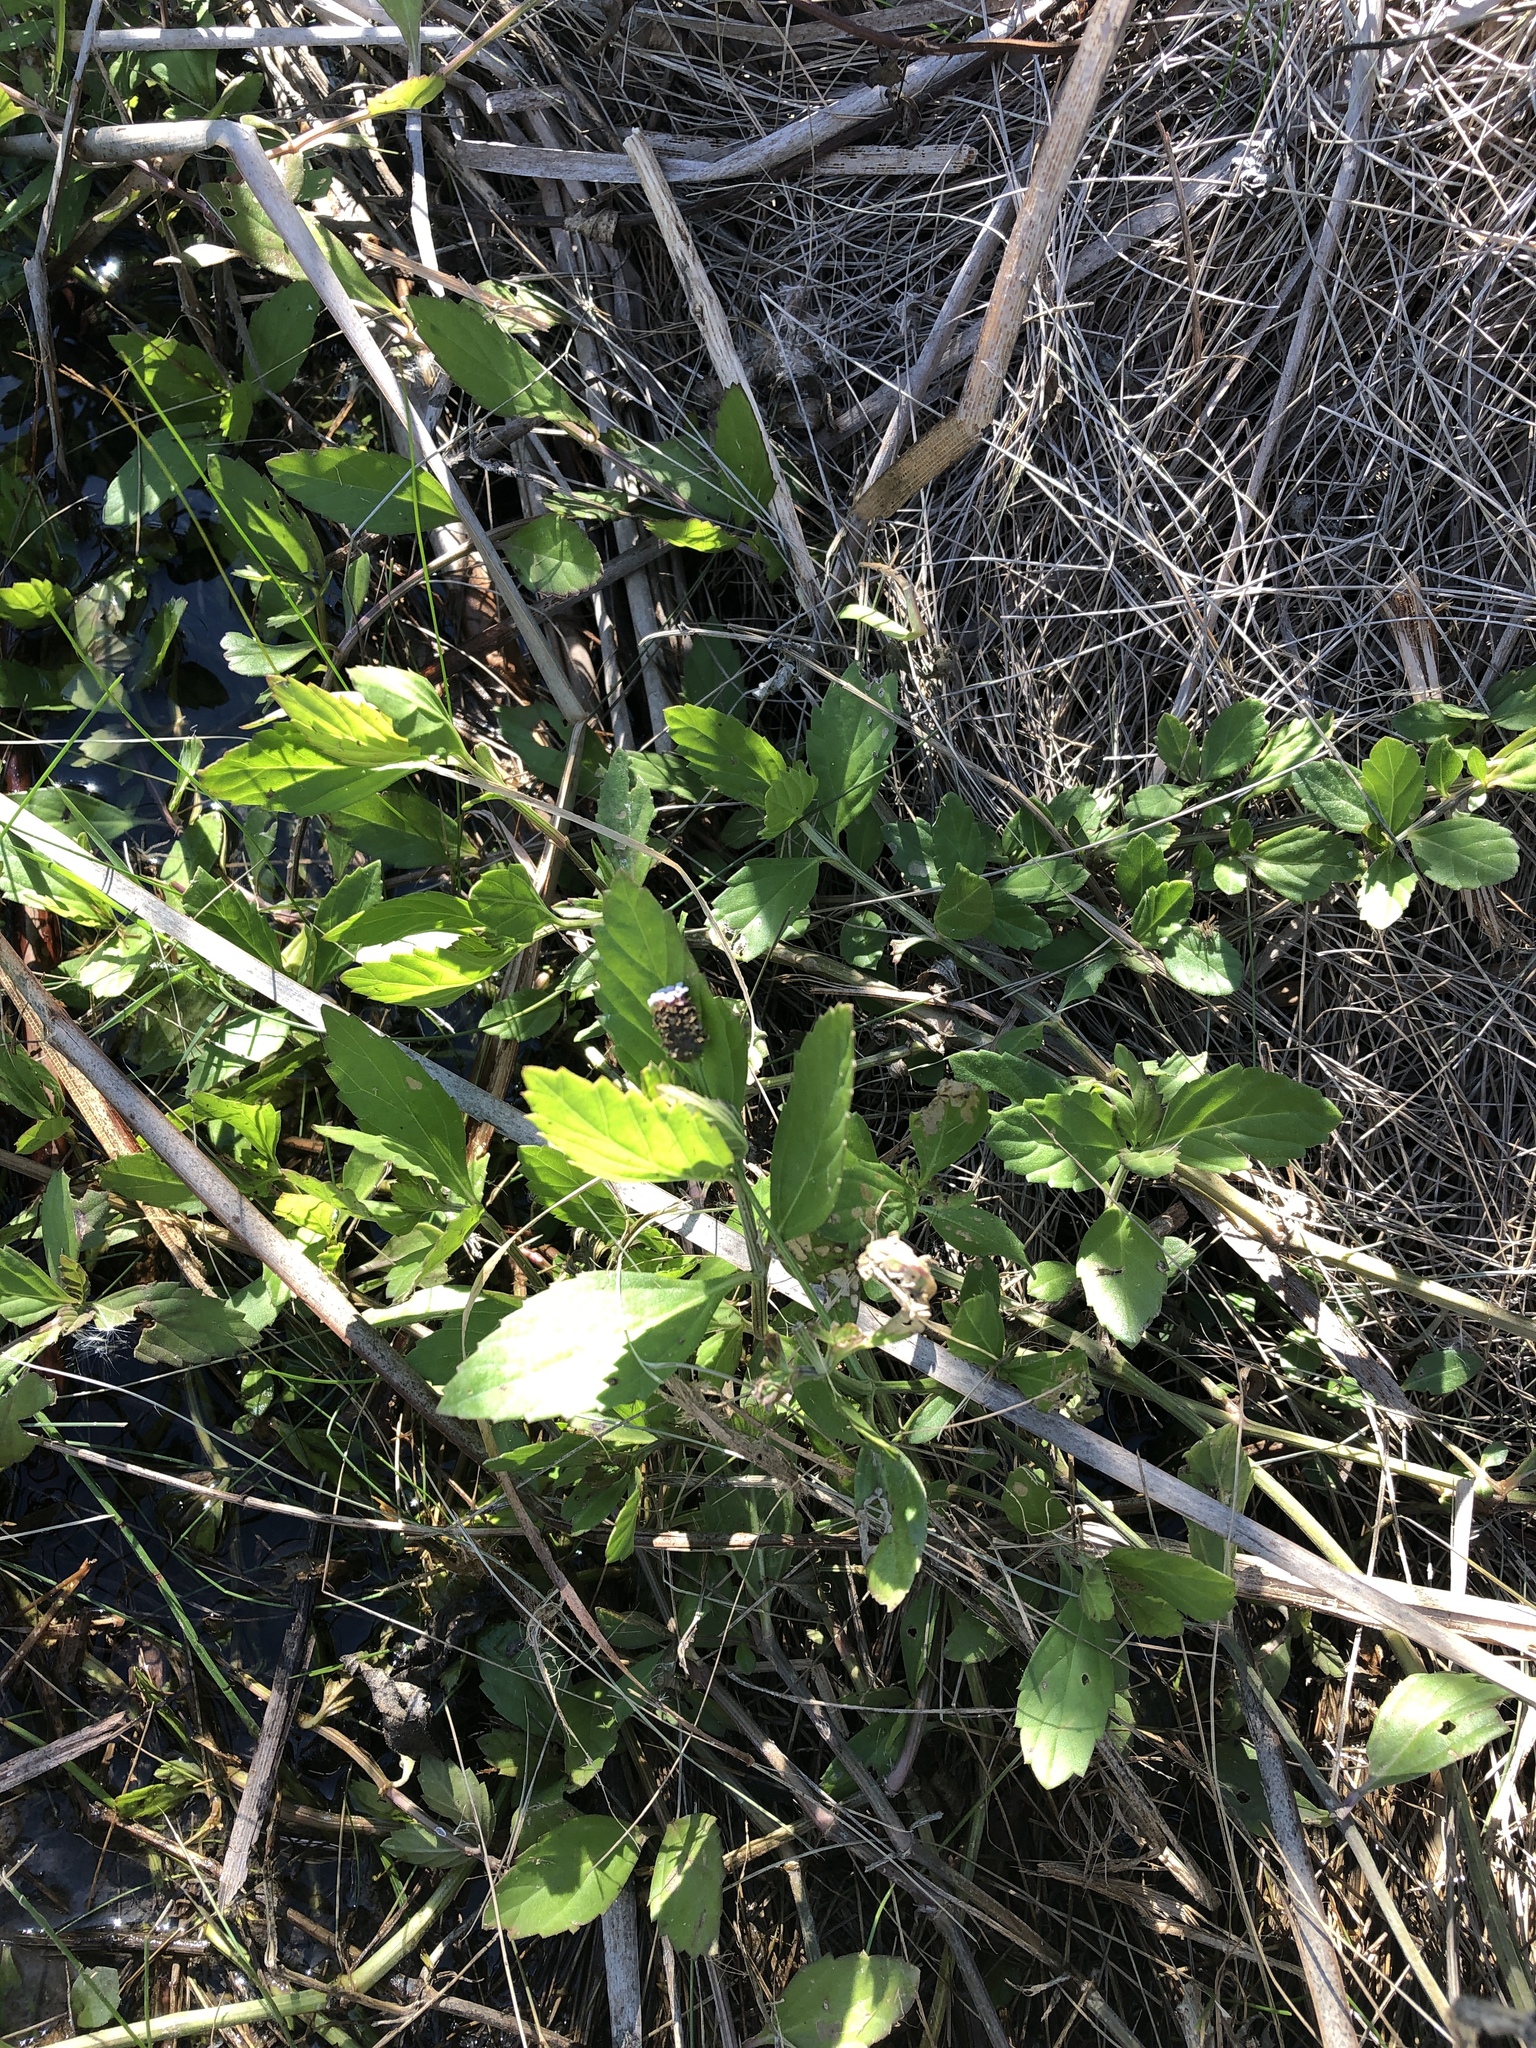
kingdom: Plantae
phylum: Tracheophyta
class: Magnoliopsida
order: Lamiales
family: Verbenaceae
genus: Phyla
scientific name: Phyla lanceolata
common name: Northern fogfruit
